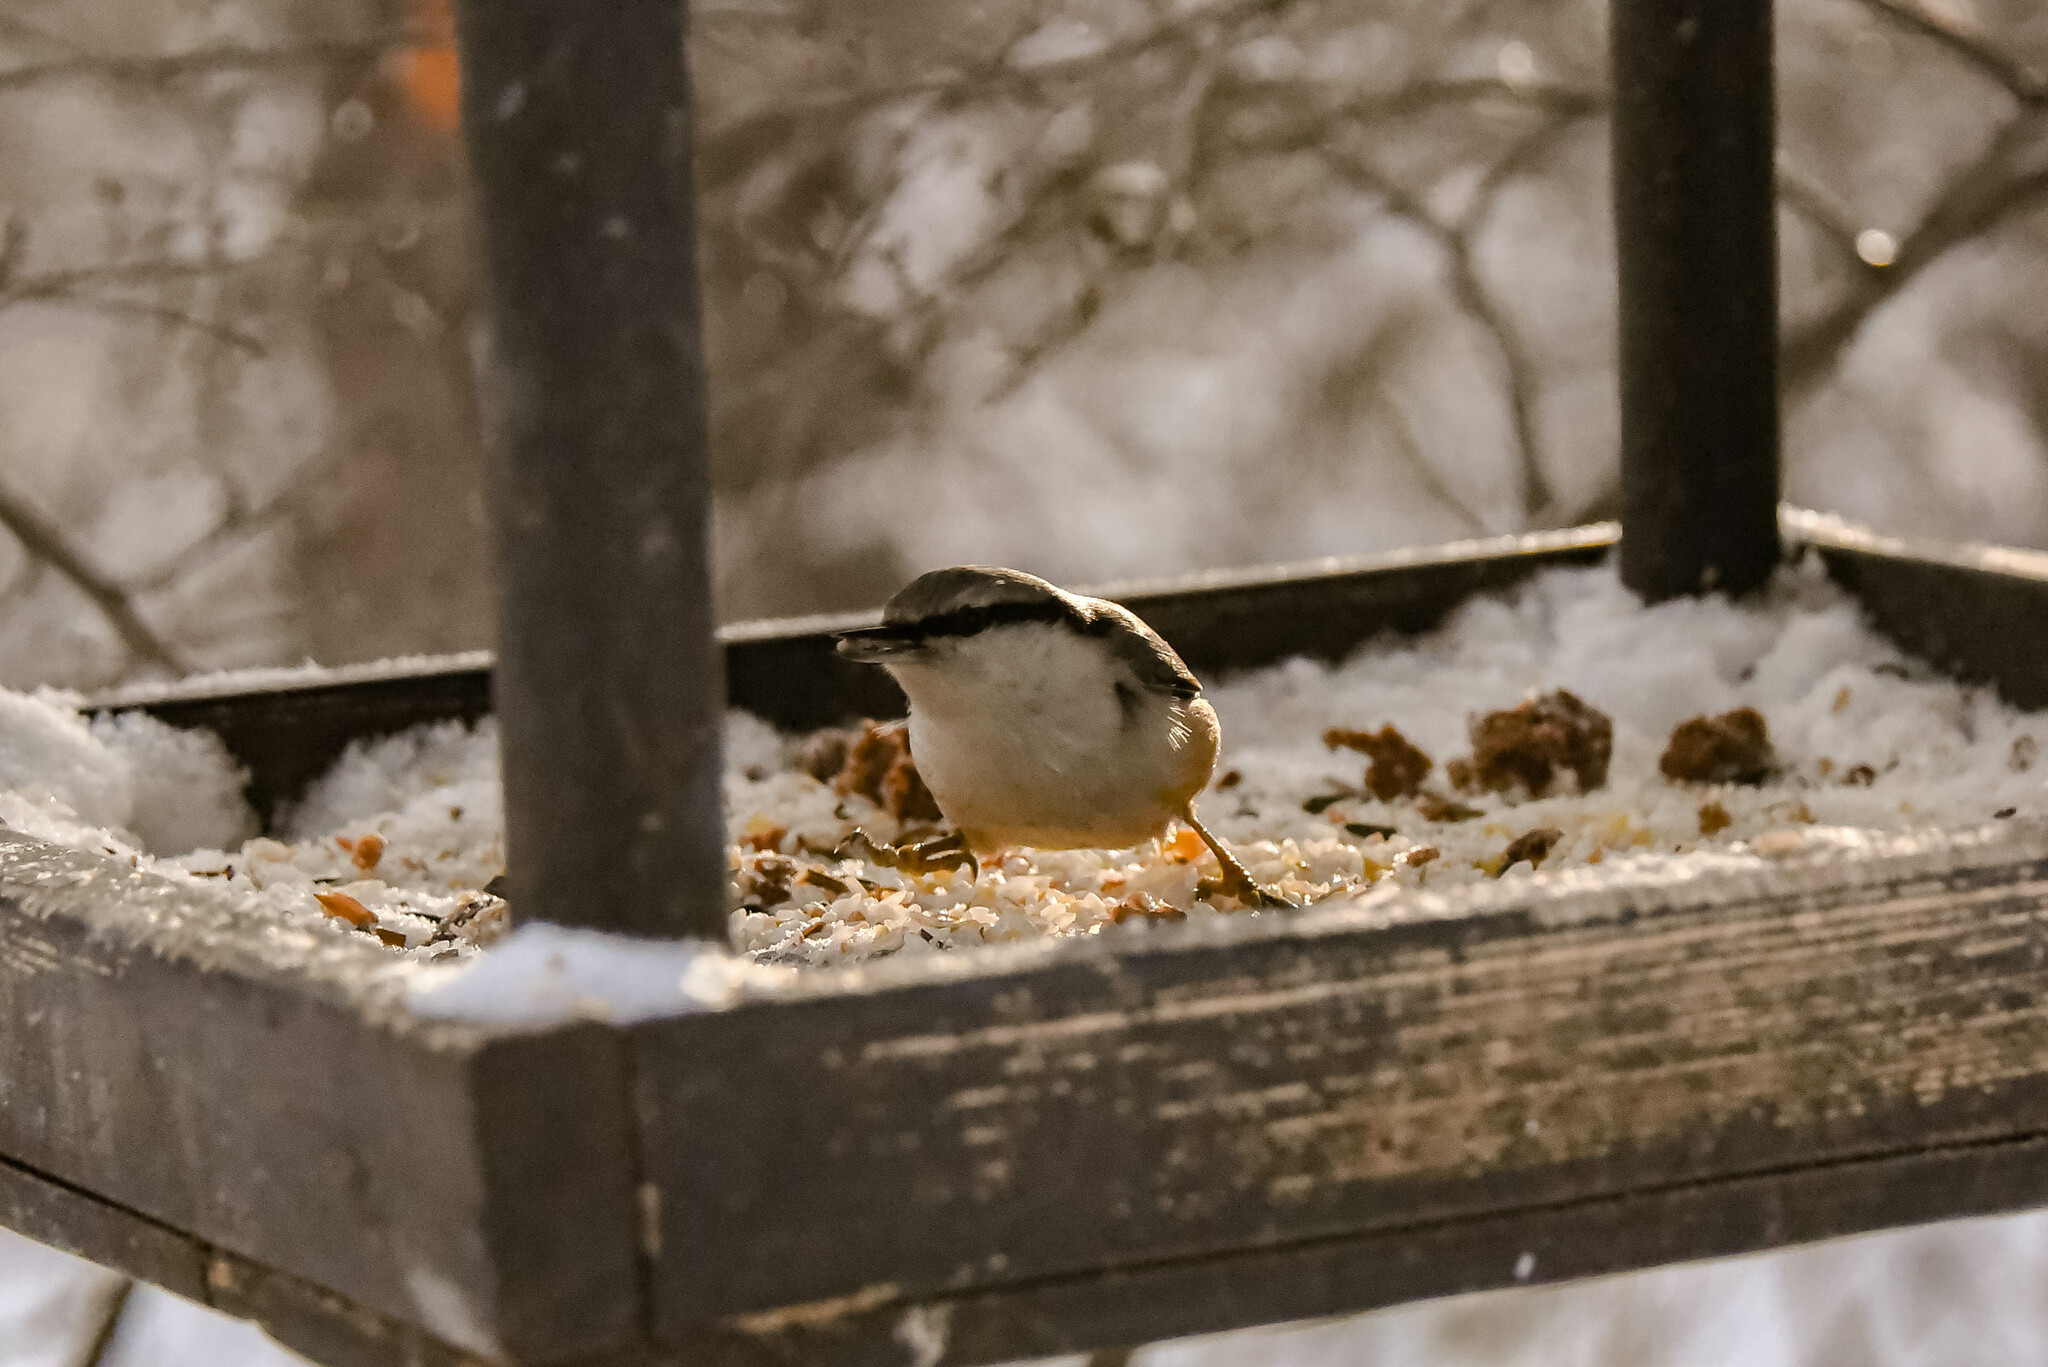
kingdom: Animalia
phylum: Chordata
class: Aves
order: Passeriformes
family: Sittidae
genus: Sitta
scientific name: Sitta europaea
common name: Eurasian nuthatch
